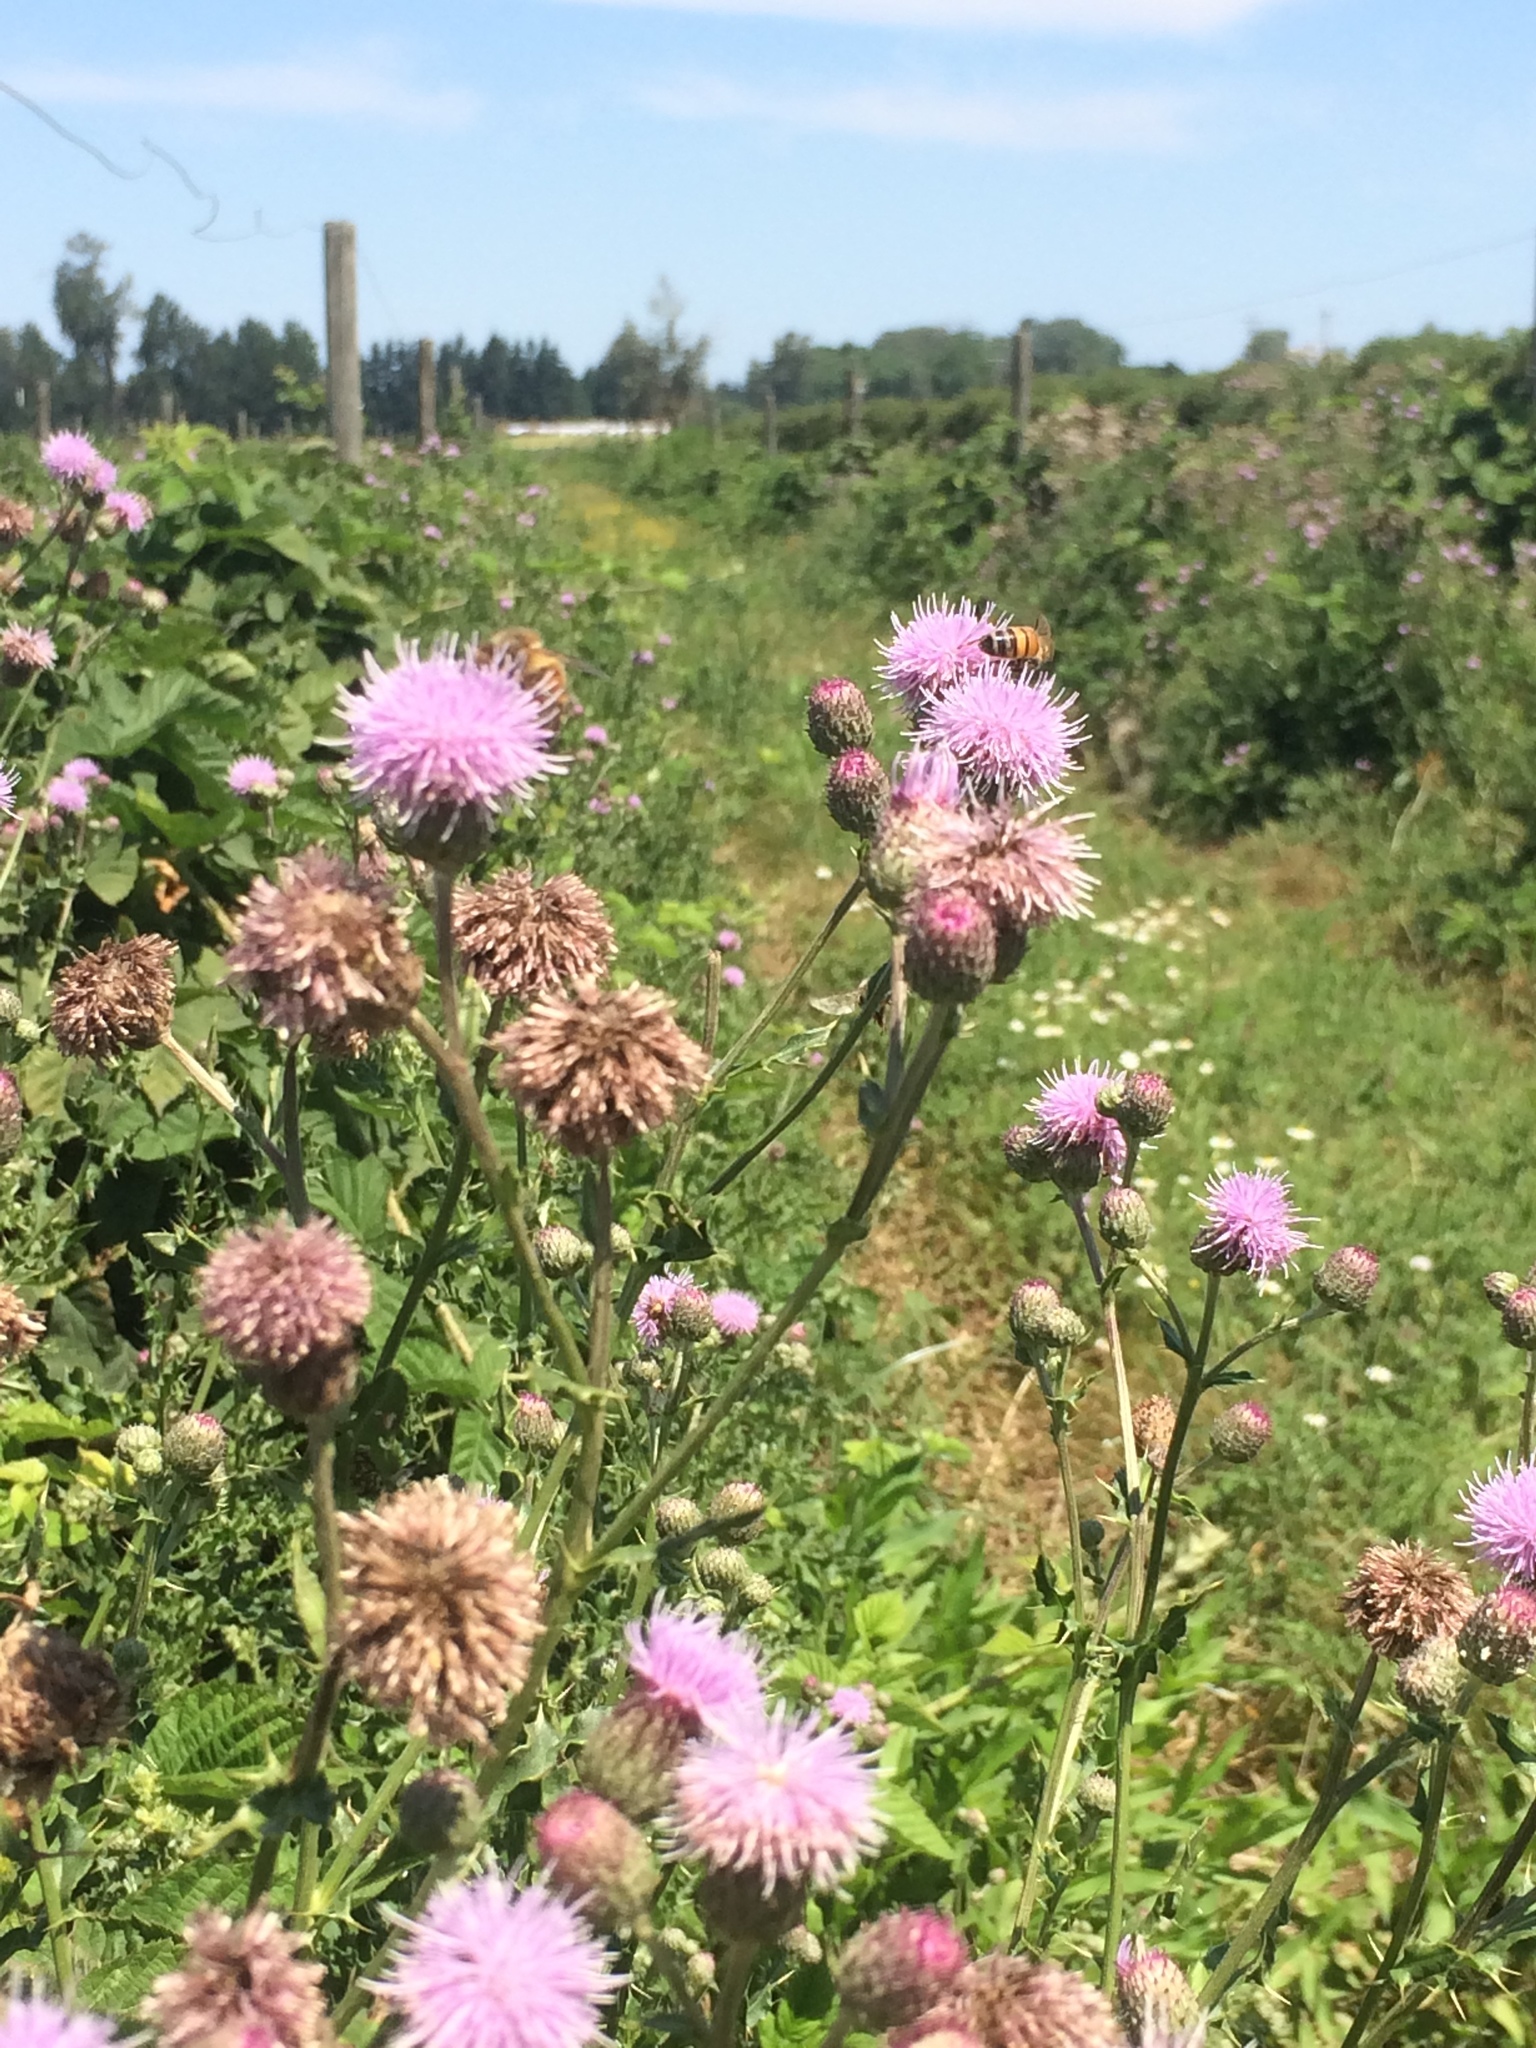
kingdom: Plantae
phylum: Tracheophyta
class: Magnoliopsida
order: Asterales
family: Asteraceae
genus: Cirsium
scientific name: Cirsium arvense
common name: Creeping thistle
